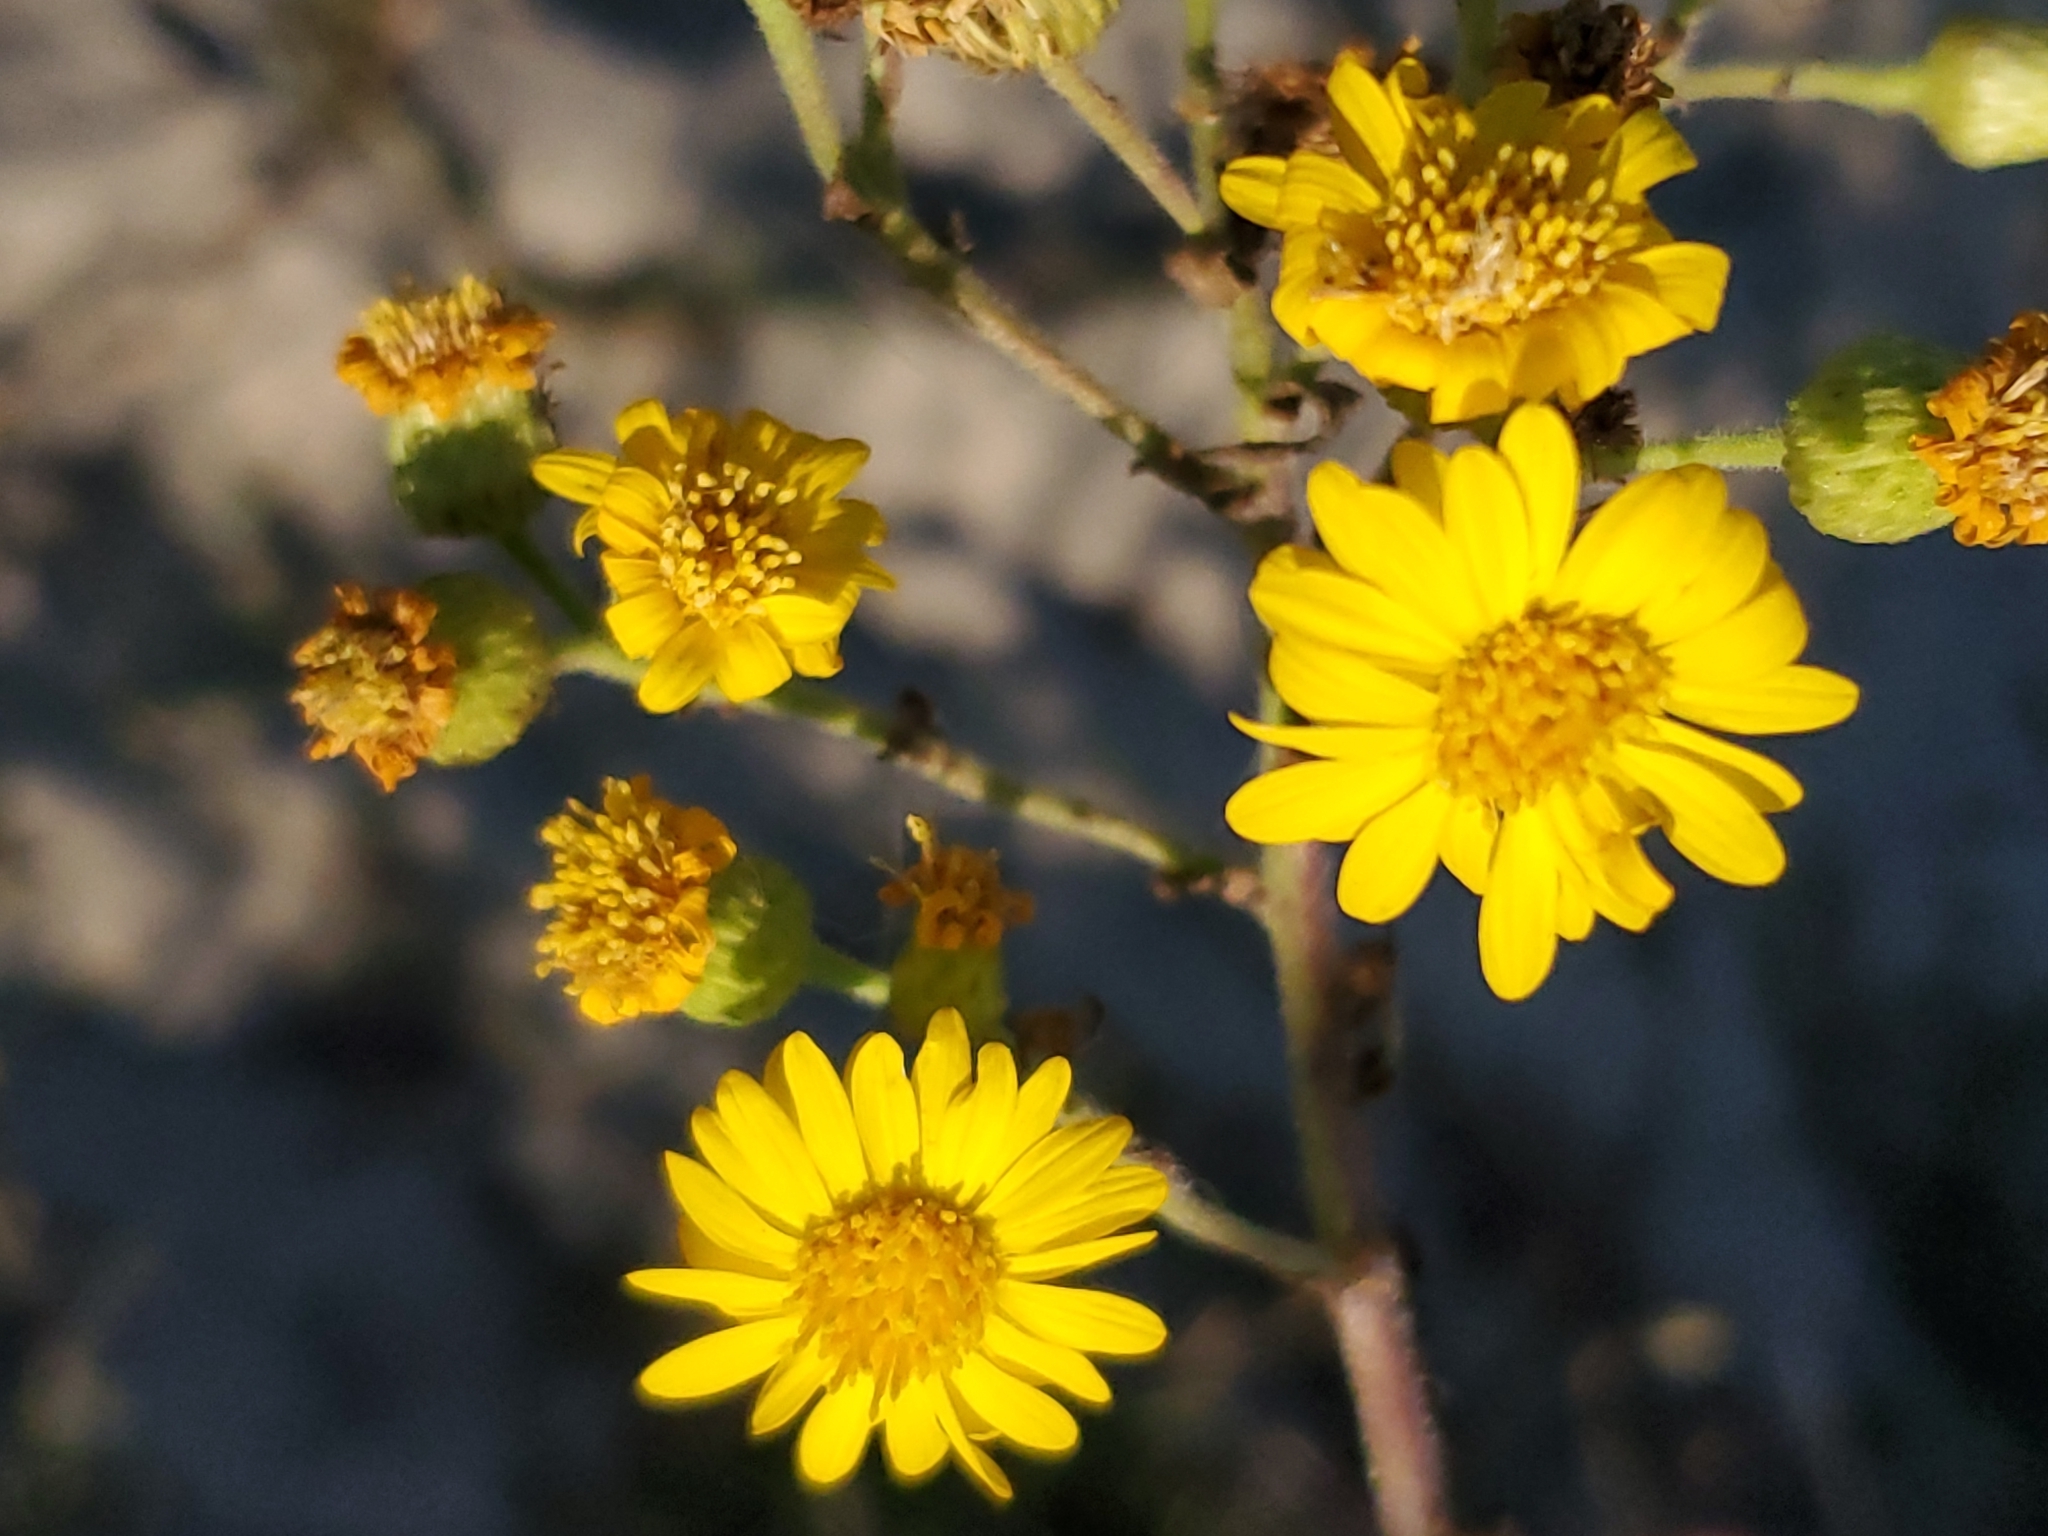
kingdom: Plantae
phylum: Tracheophyta
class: Magnoliopsida
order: Asterales
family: Asteraceae
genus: Chrysopsis
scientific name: Chrysopsis mariana
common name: Maryland golden-aster
